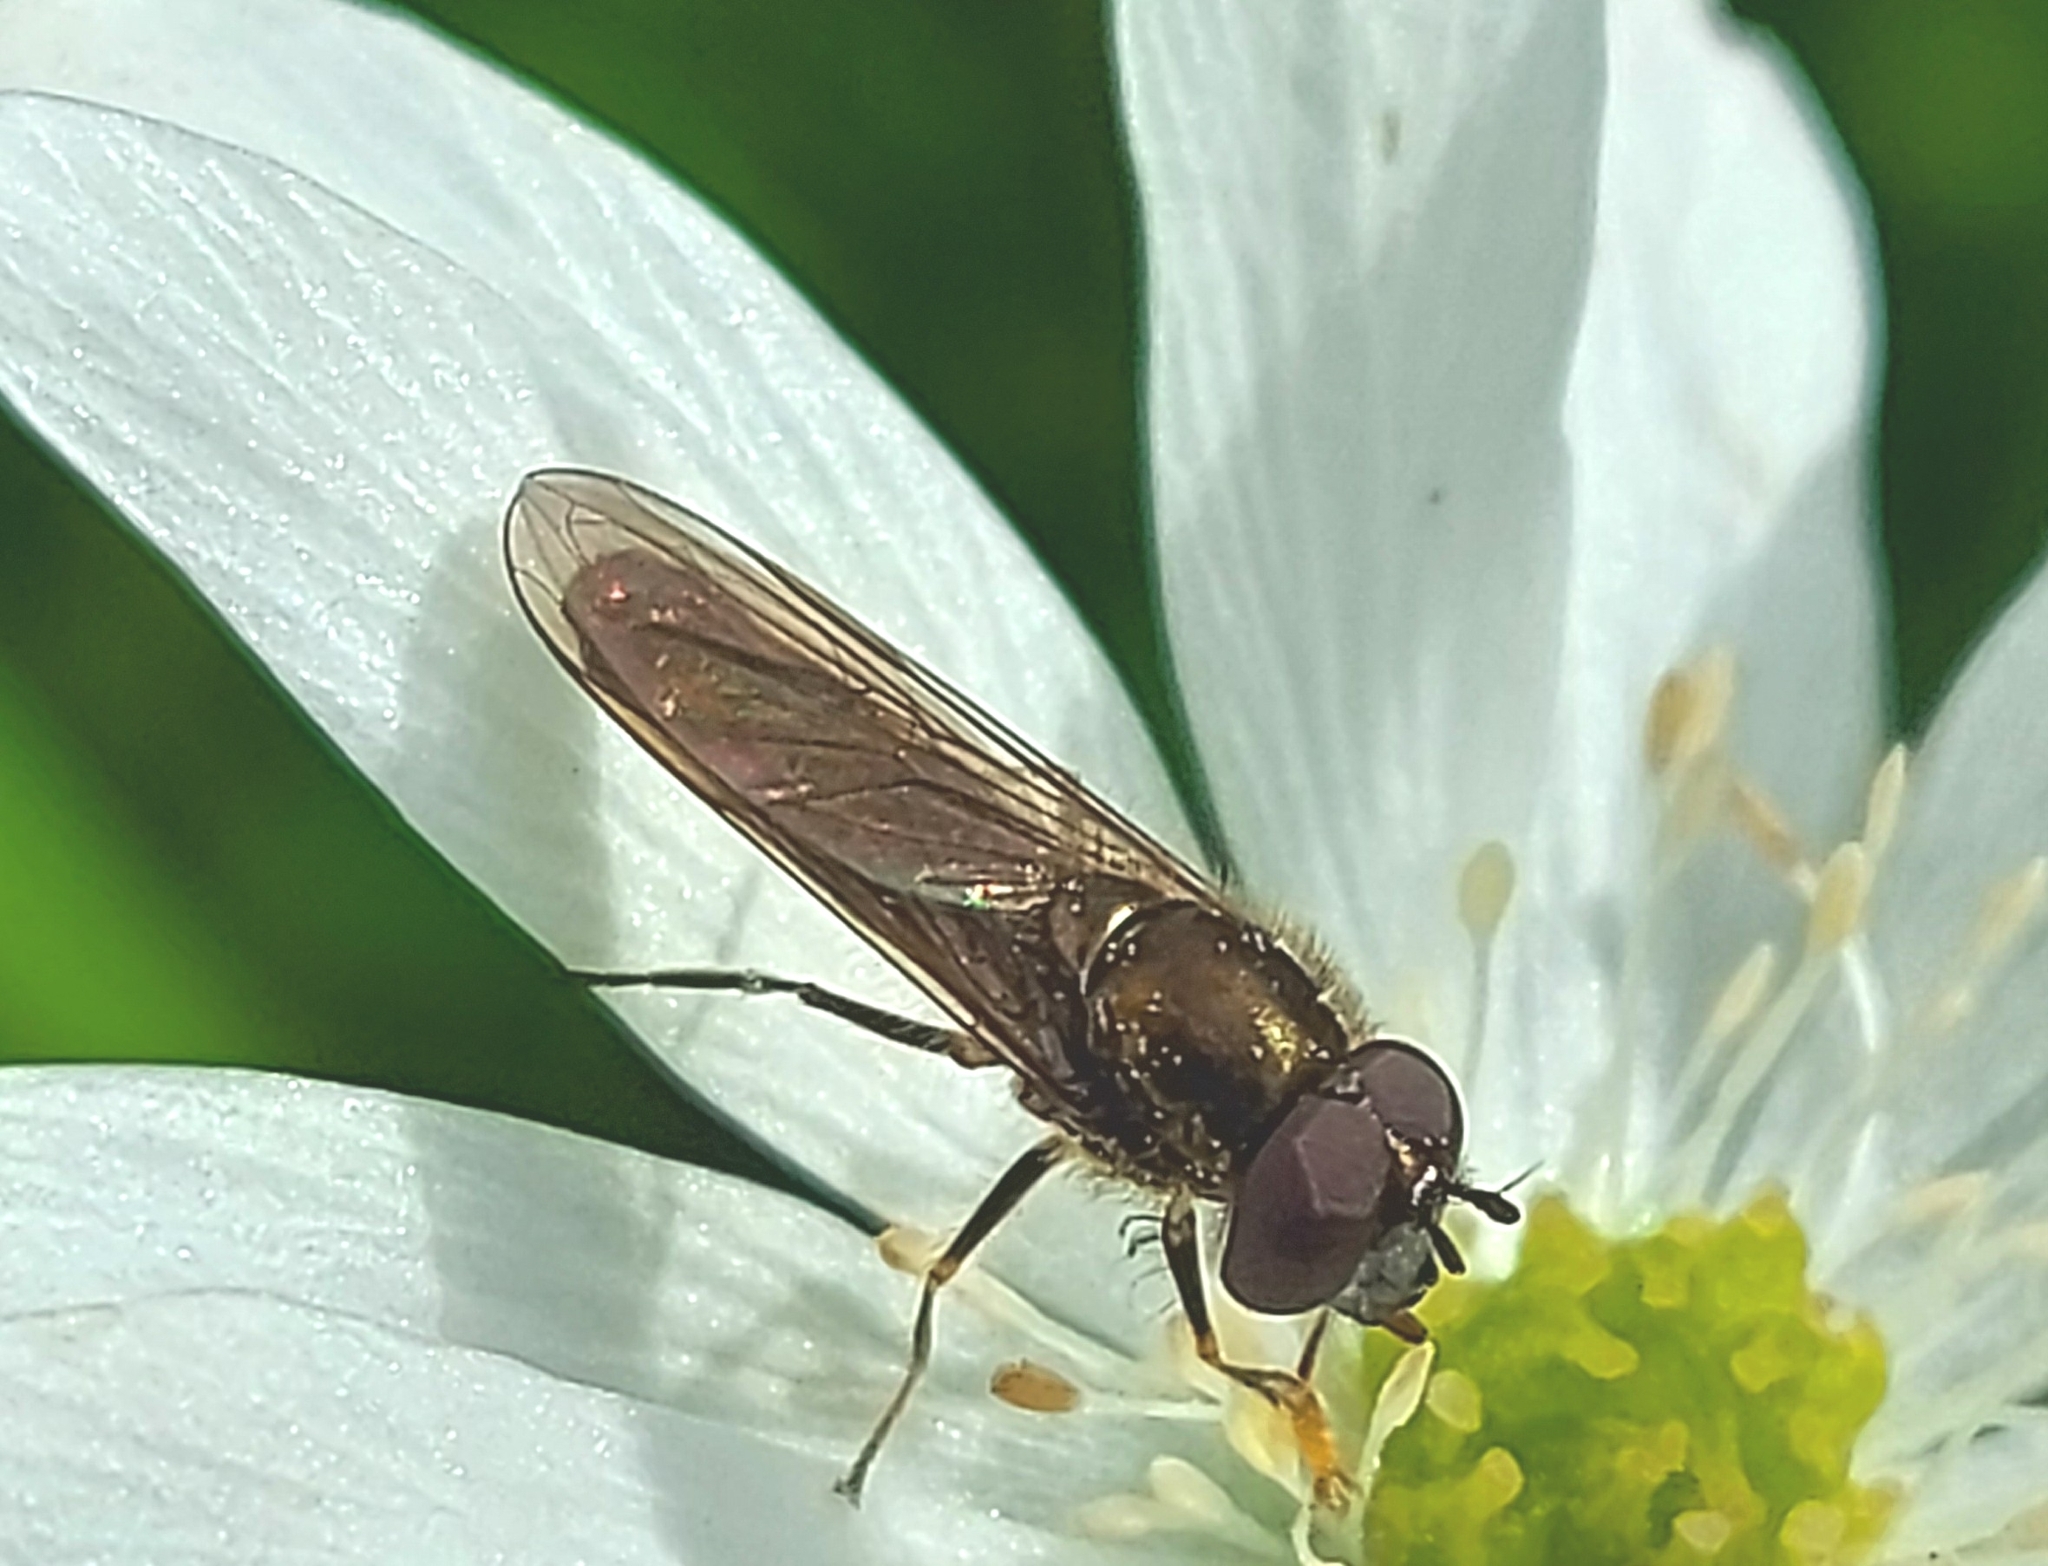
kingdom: Animalia
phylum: Arthropoda
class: Insecta
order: Diptera
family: Syrphidae
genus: Platycheirus
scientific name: Platycheirus albimanus
